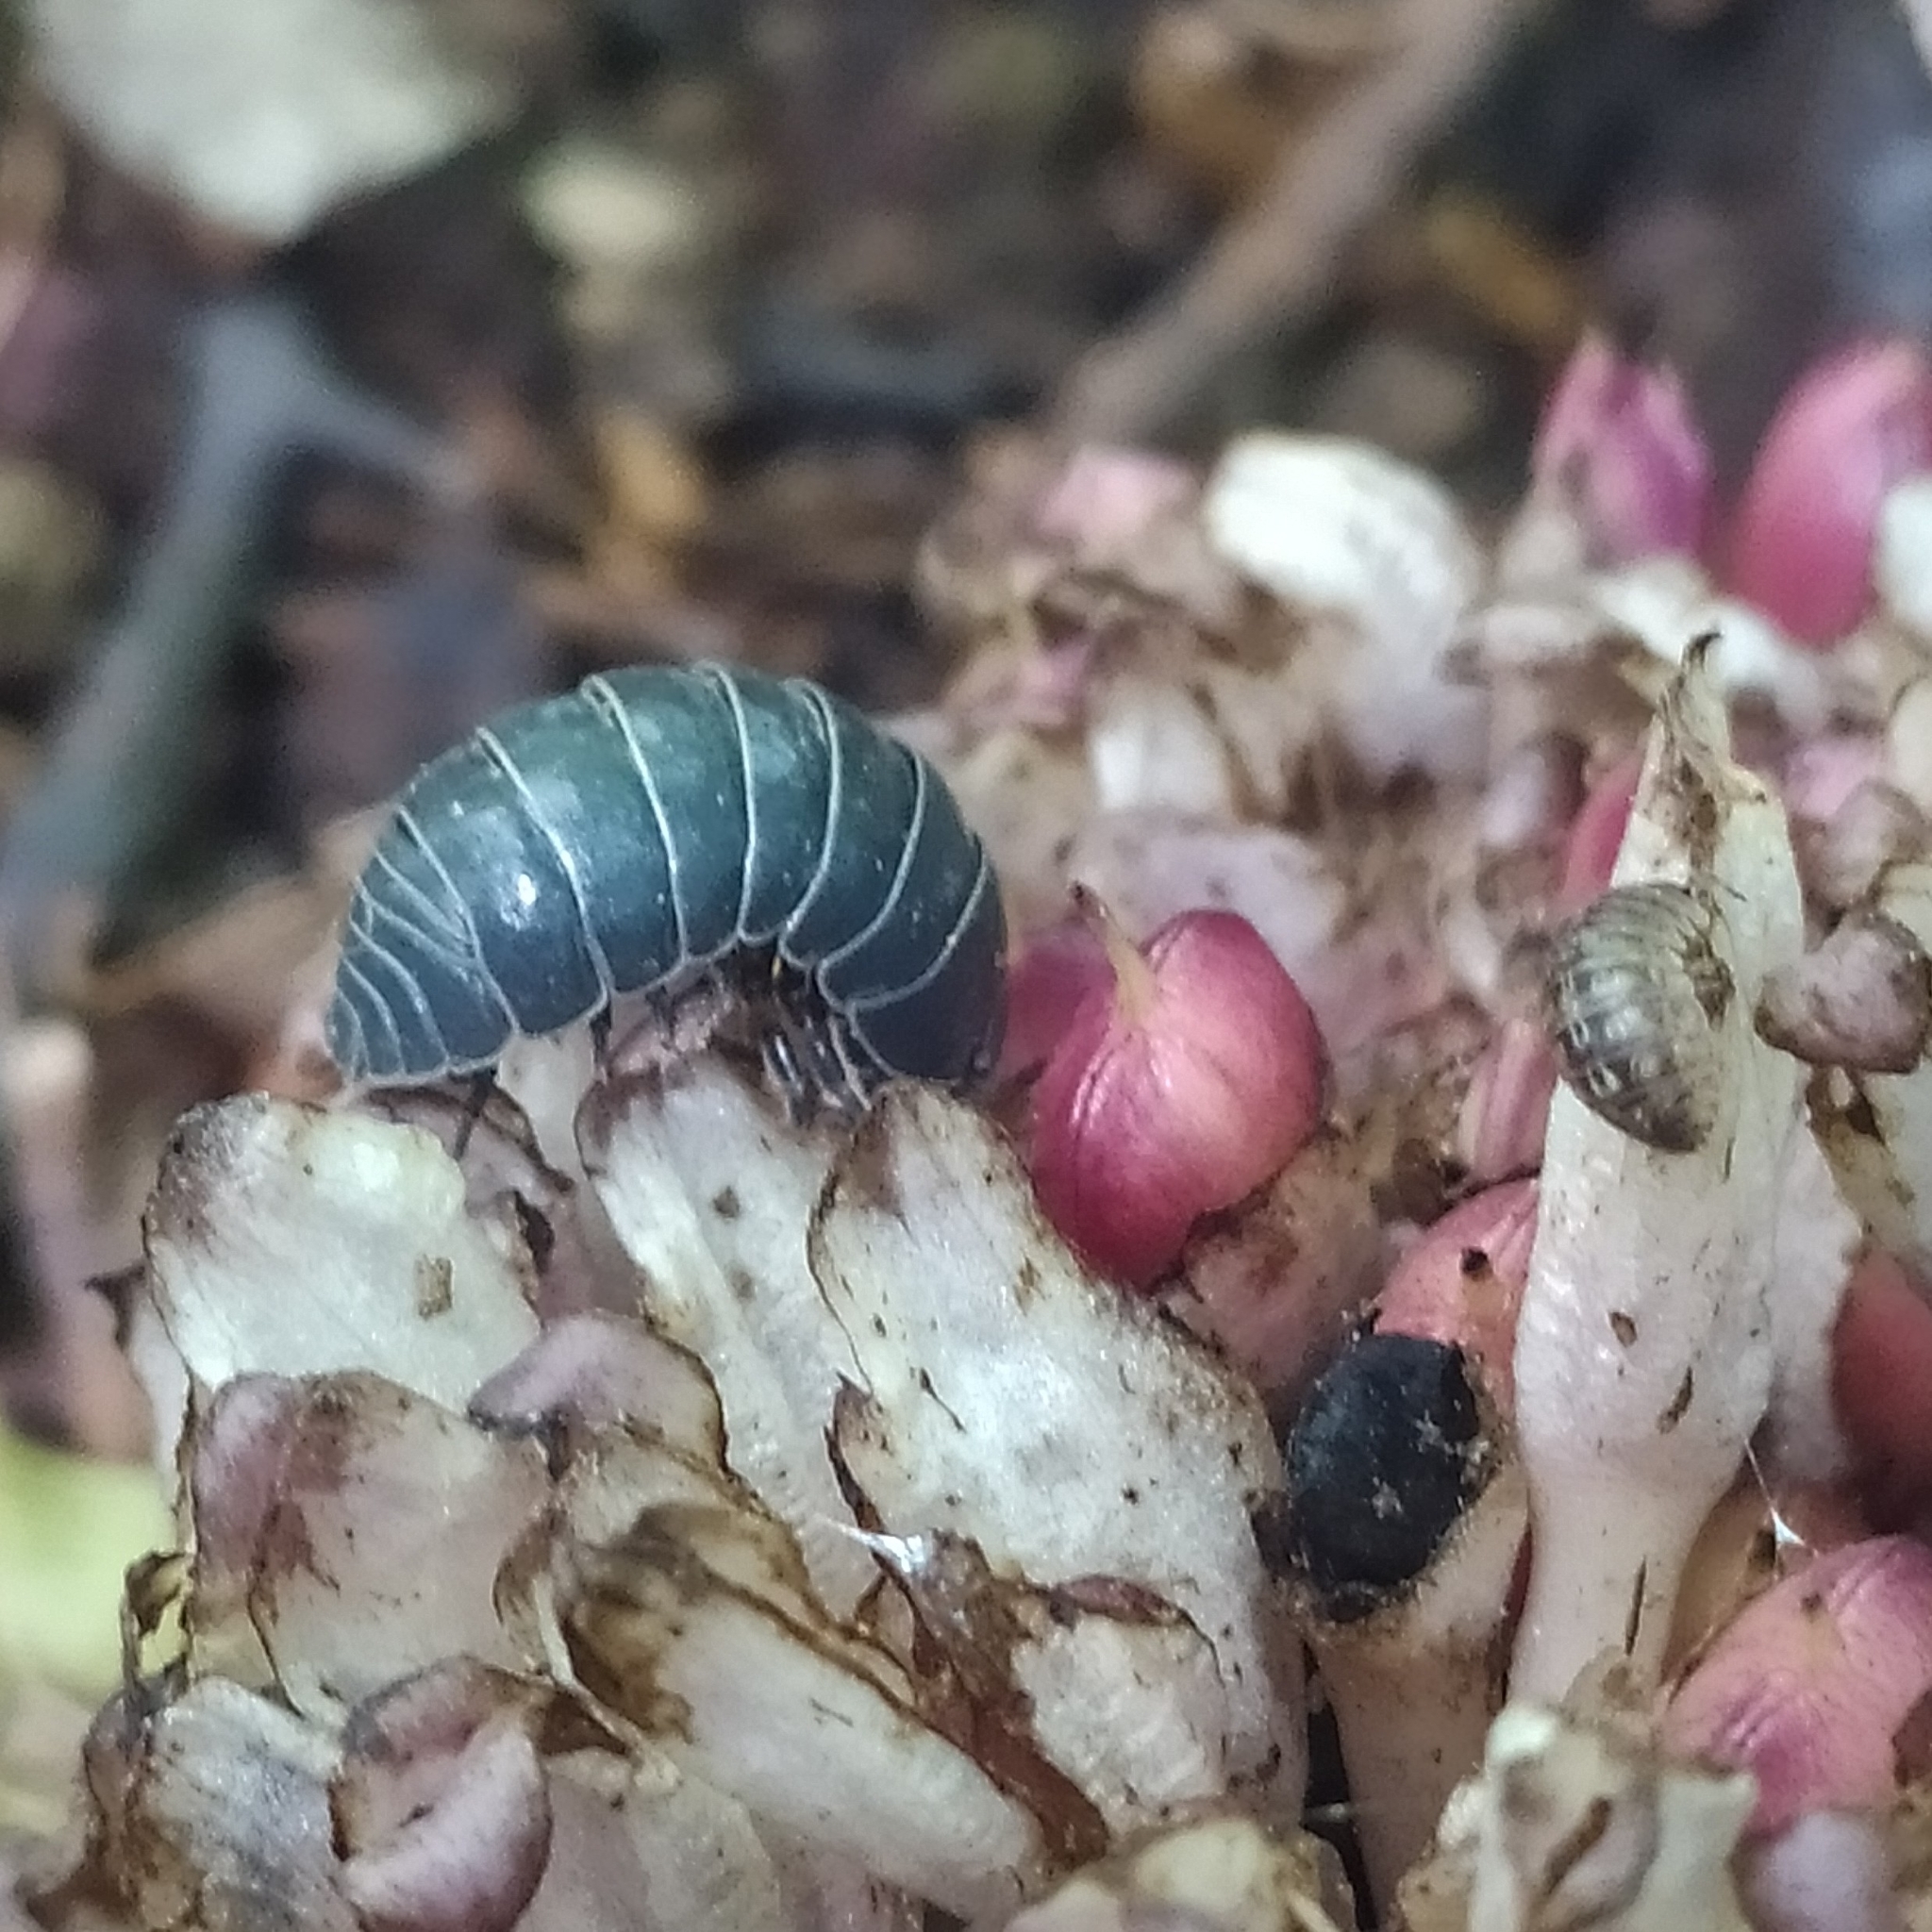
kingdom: Animalia
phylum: Arthropoda
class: Malacostraca
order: Isopoda
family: Armadillidiidae
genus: Armadillidium
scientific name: Armadillidium vulgare
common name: Common pill woodlouse
